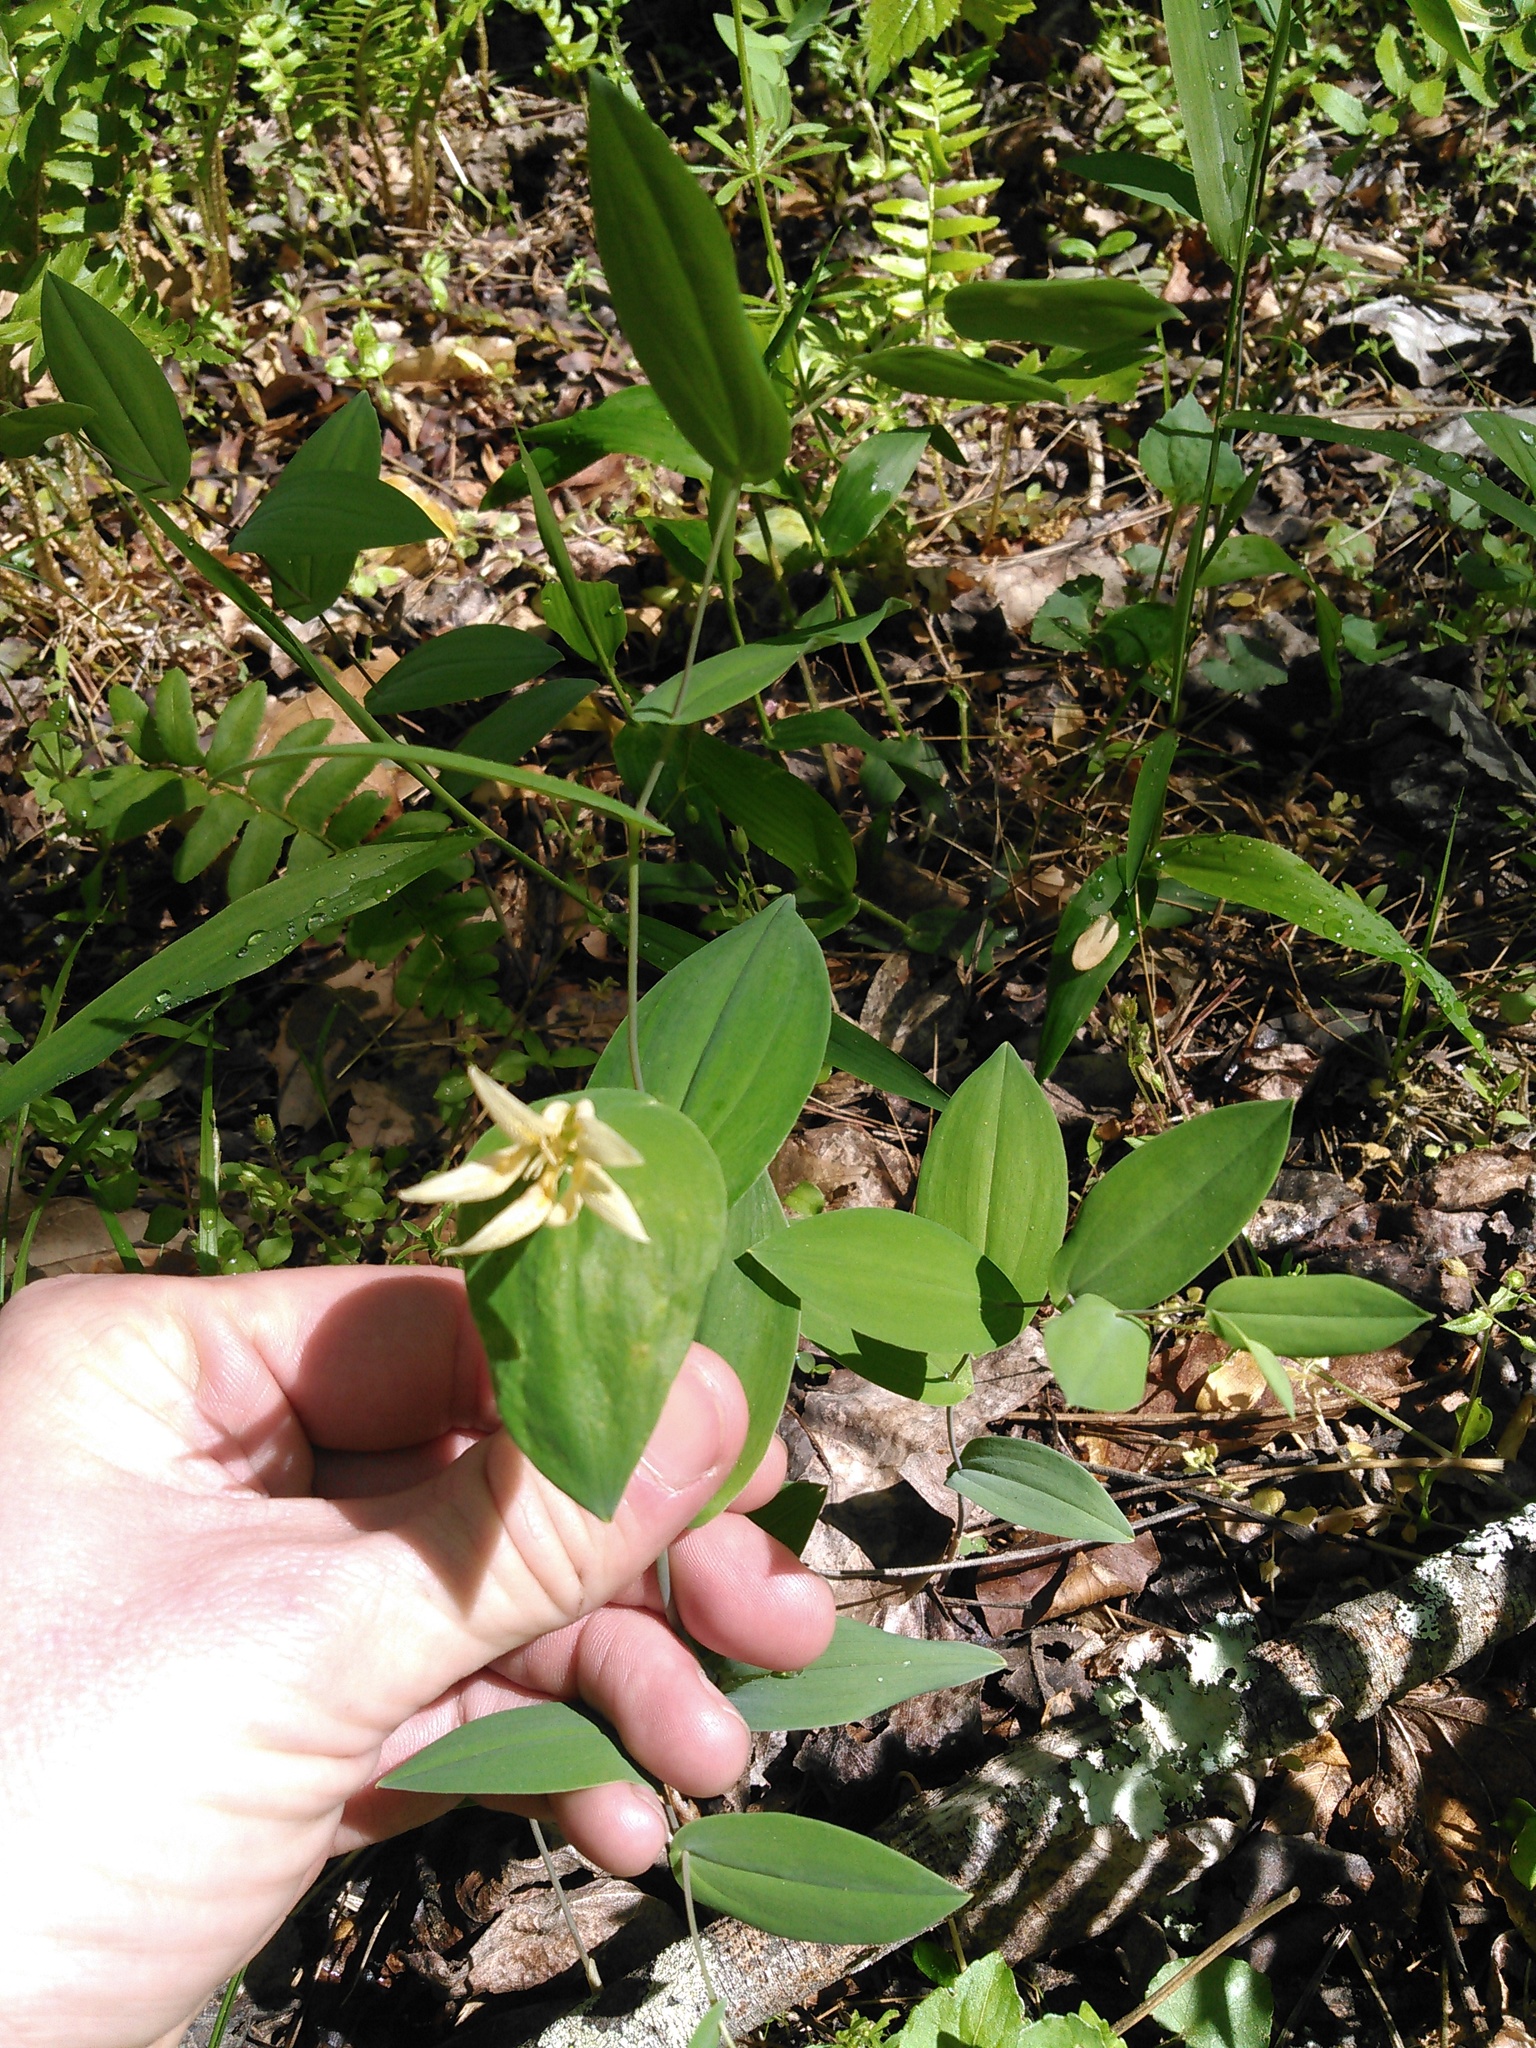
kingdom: Plantae
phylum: Tracheophyta
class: Liliopsida
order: Liliales
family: Colchicaceae
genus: Uvularia
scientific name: Uvularia perfoliata
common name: Perfoliate bellwort
